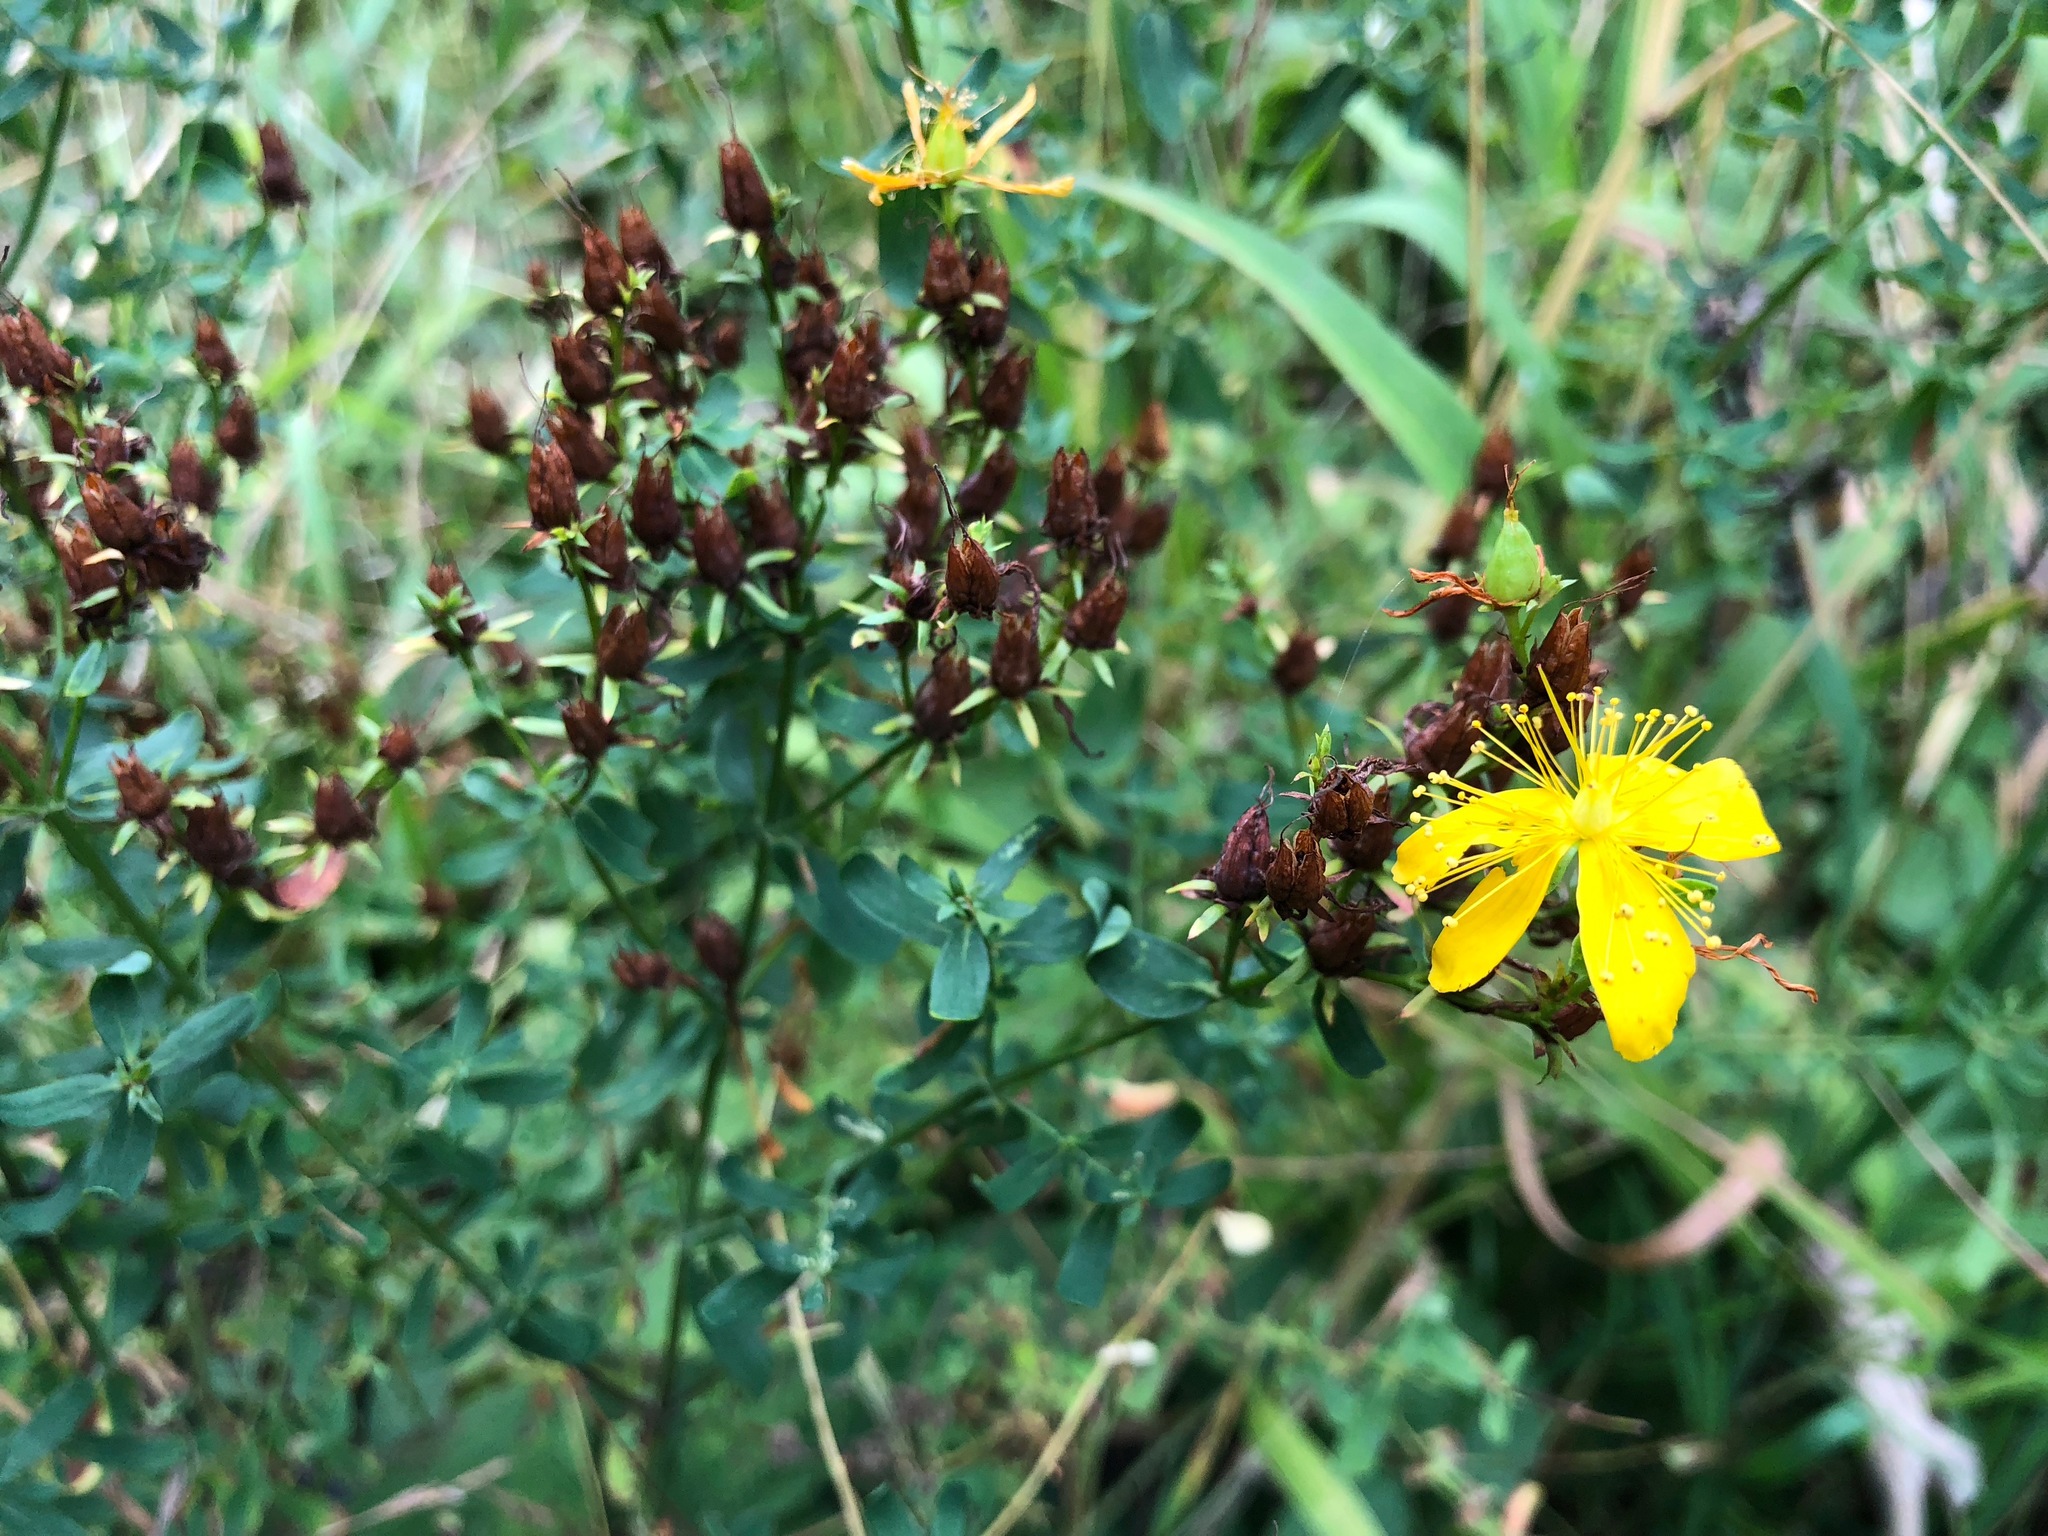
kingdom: Plantae
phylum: Tracheophyta
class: Magnoliopsida
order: Malpighiales
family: Hypericaceae
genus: Hypericum
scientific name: Hypericum perforatum
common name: Common st. johnswort
